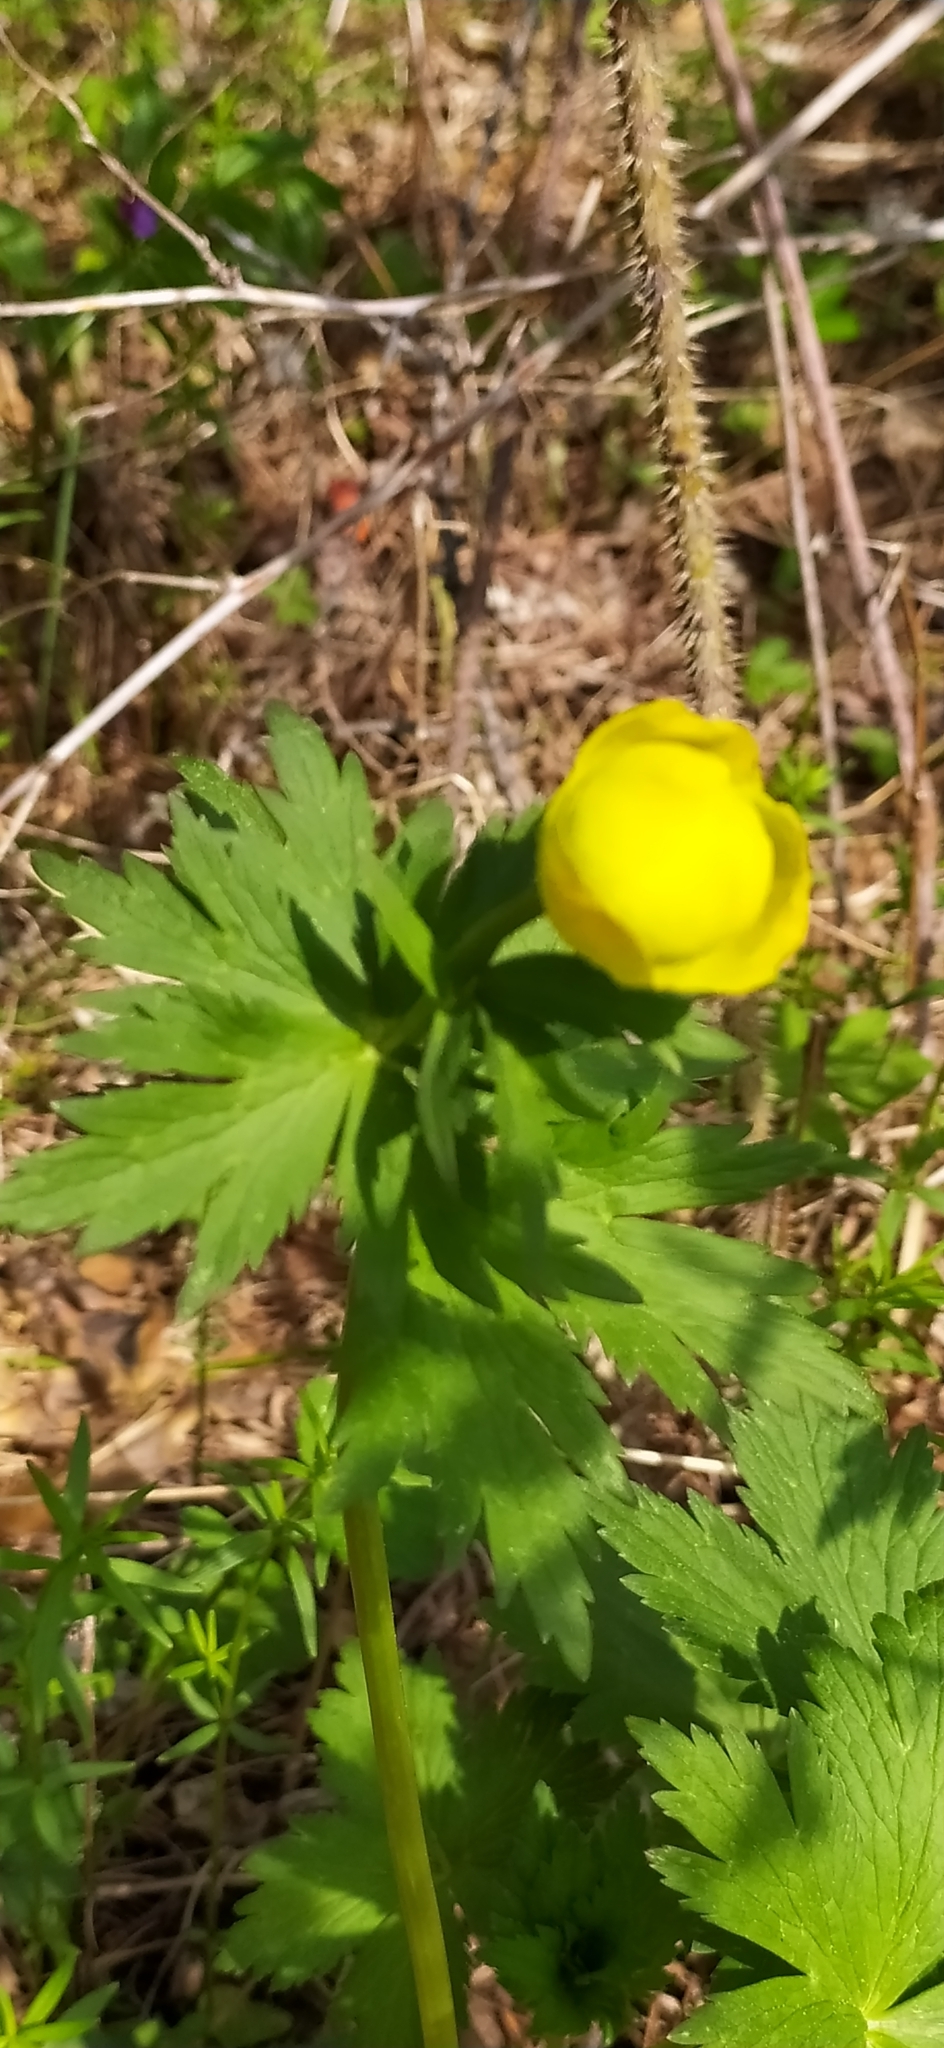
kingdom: Plantae
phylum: Tracheophyta
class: Magnoliopsida
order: Ranunculales
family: Ranunculaceae
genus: Trollius
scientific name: Trollius europaeus
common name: European globeflower
